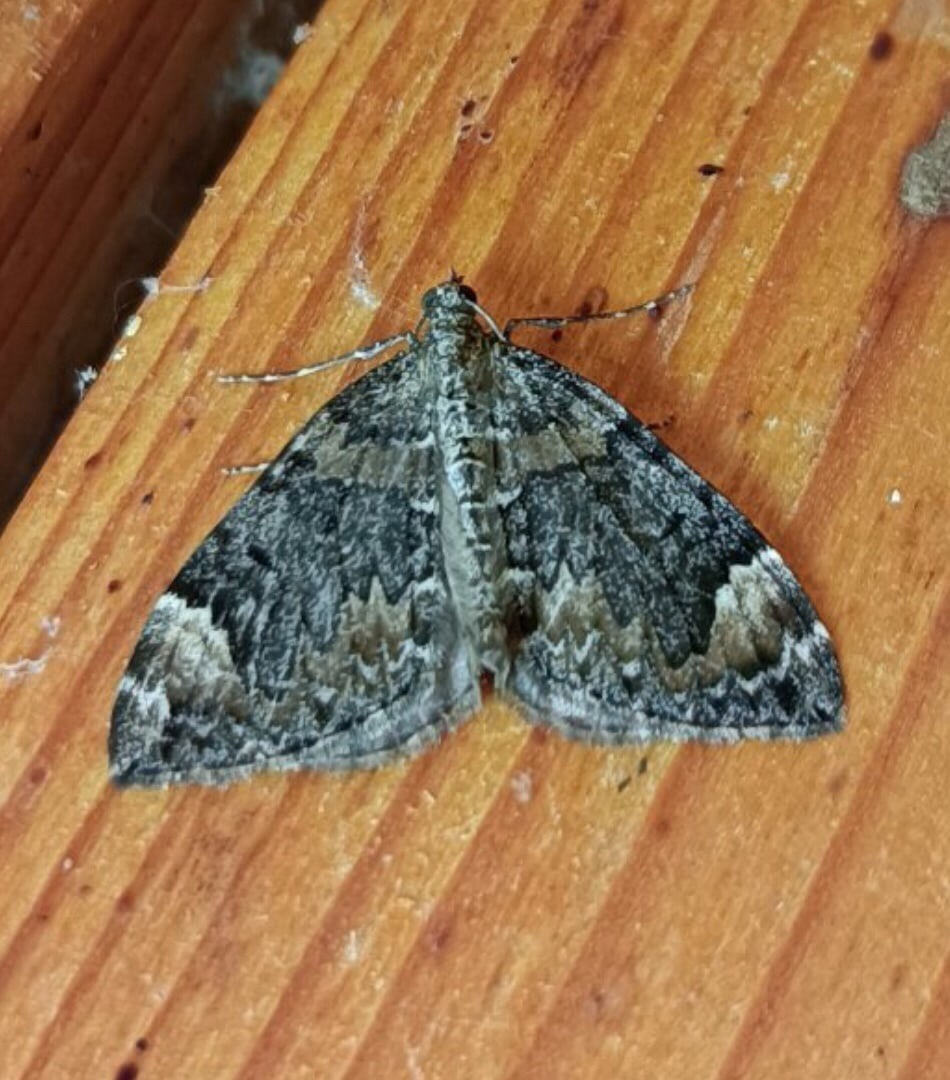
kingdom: Animalia
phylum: Arthropoda
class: Insecta
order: Lepidoptera
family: Geometridae
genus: Dysstroma
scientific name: Dysstroma citrata
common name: Dark marbled carpet
